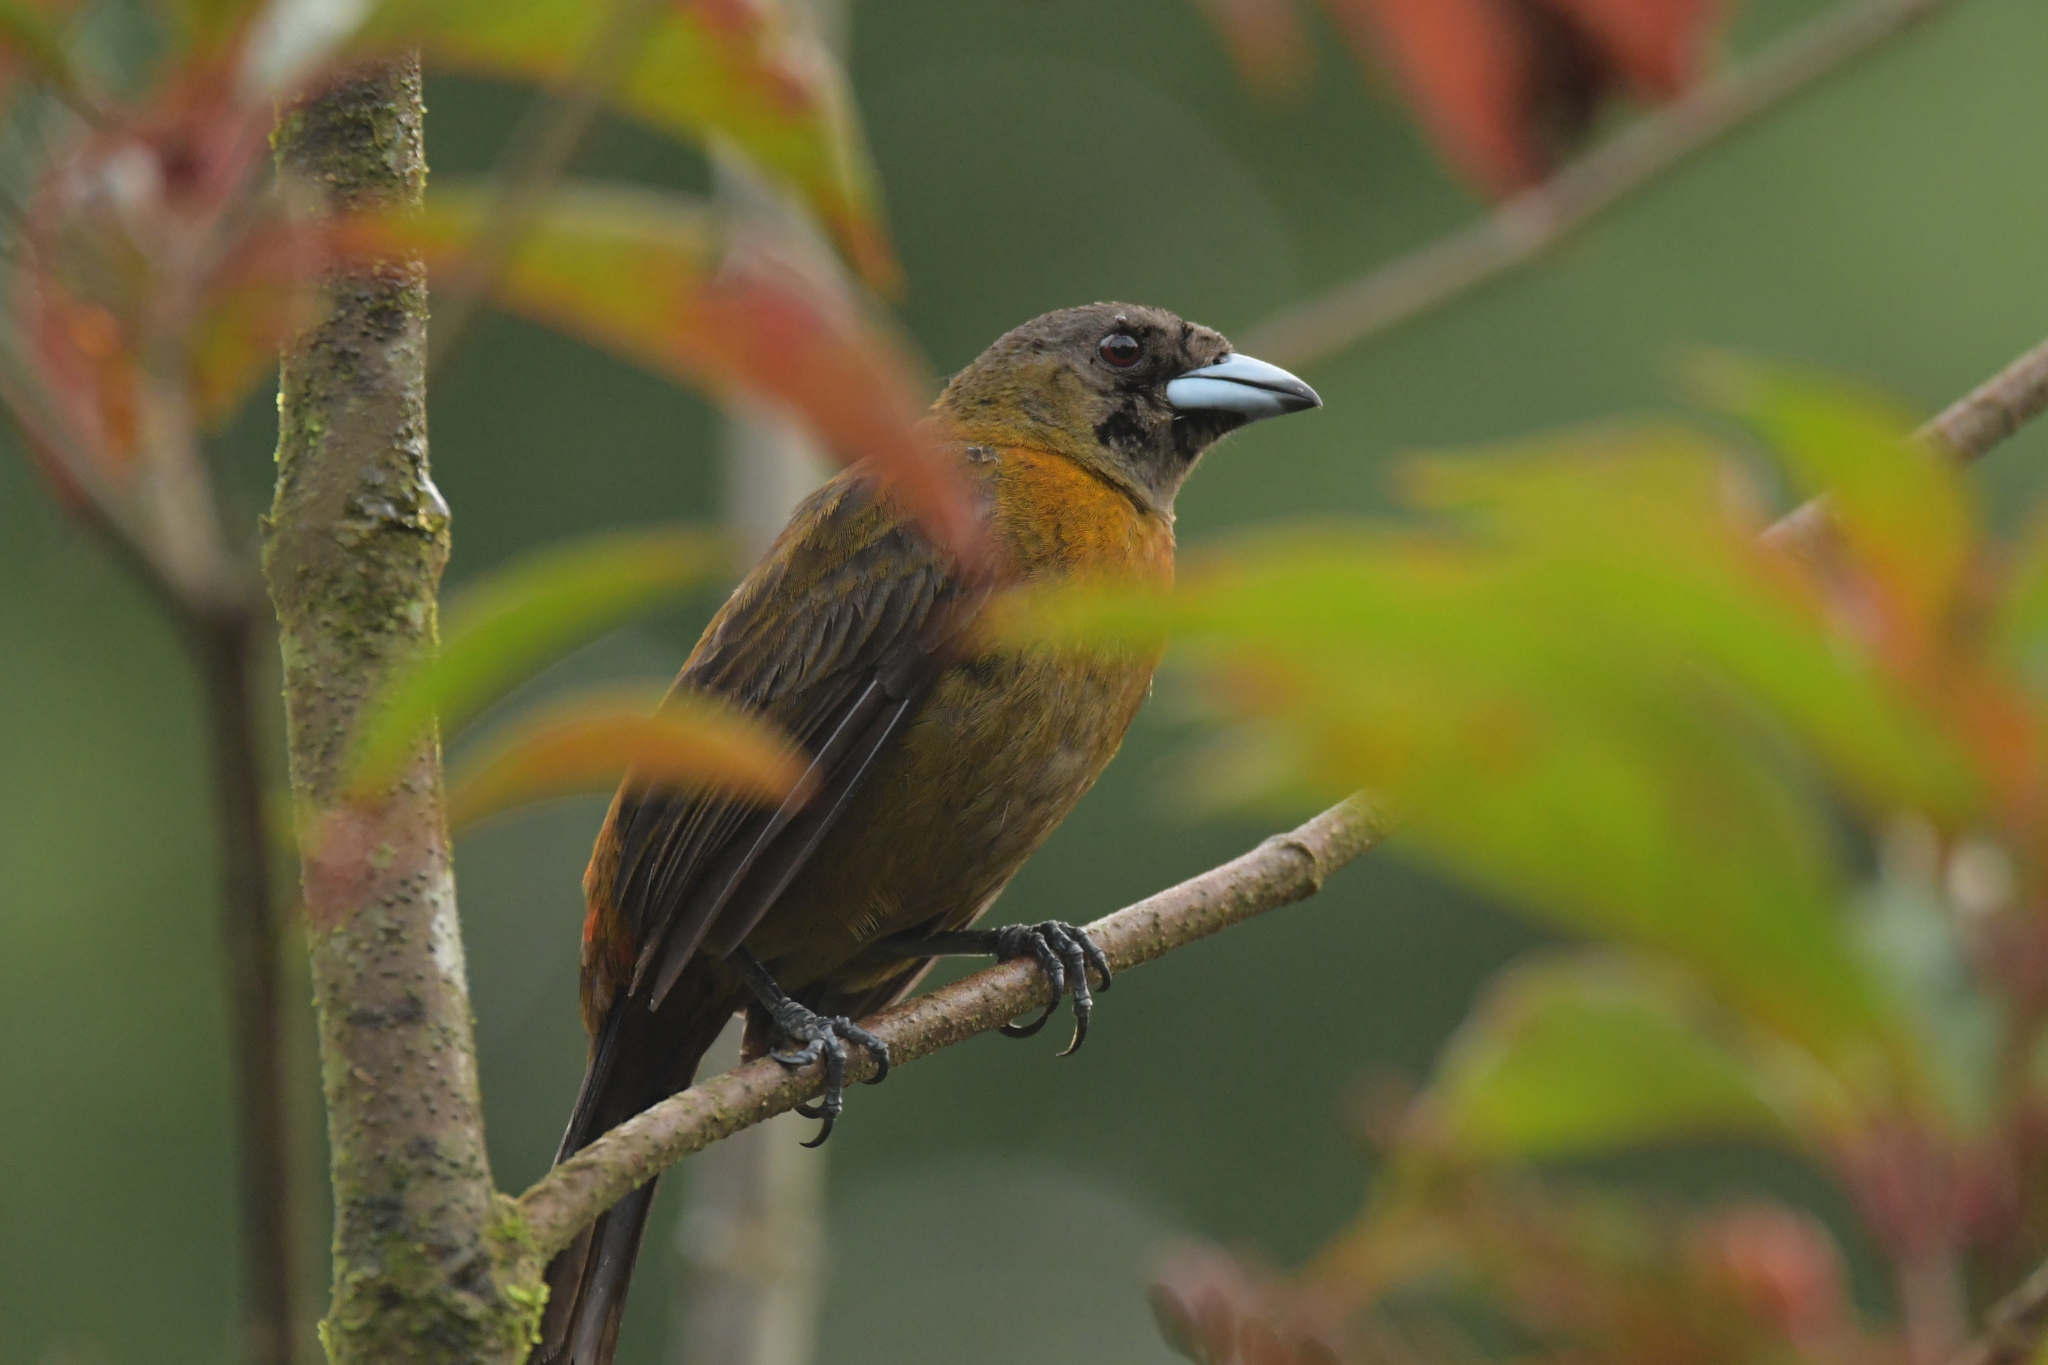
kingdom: Animalia
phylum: Chordata
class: Aves
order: Passeriformes
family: Thraupidae
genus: Ramphocelus
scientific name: Ramphocelus passerinii
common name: Passerini's tanager
